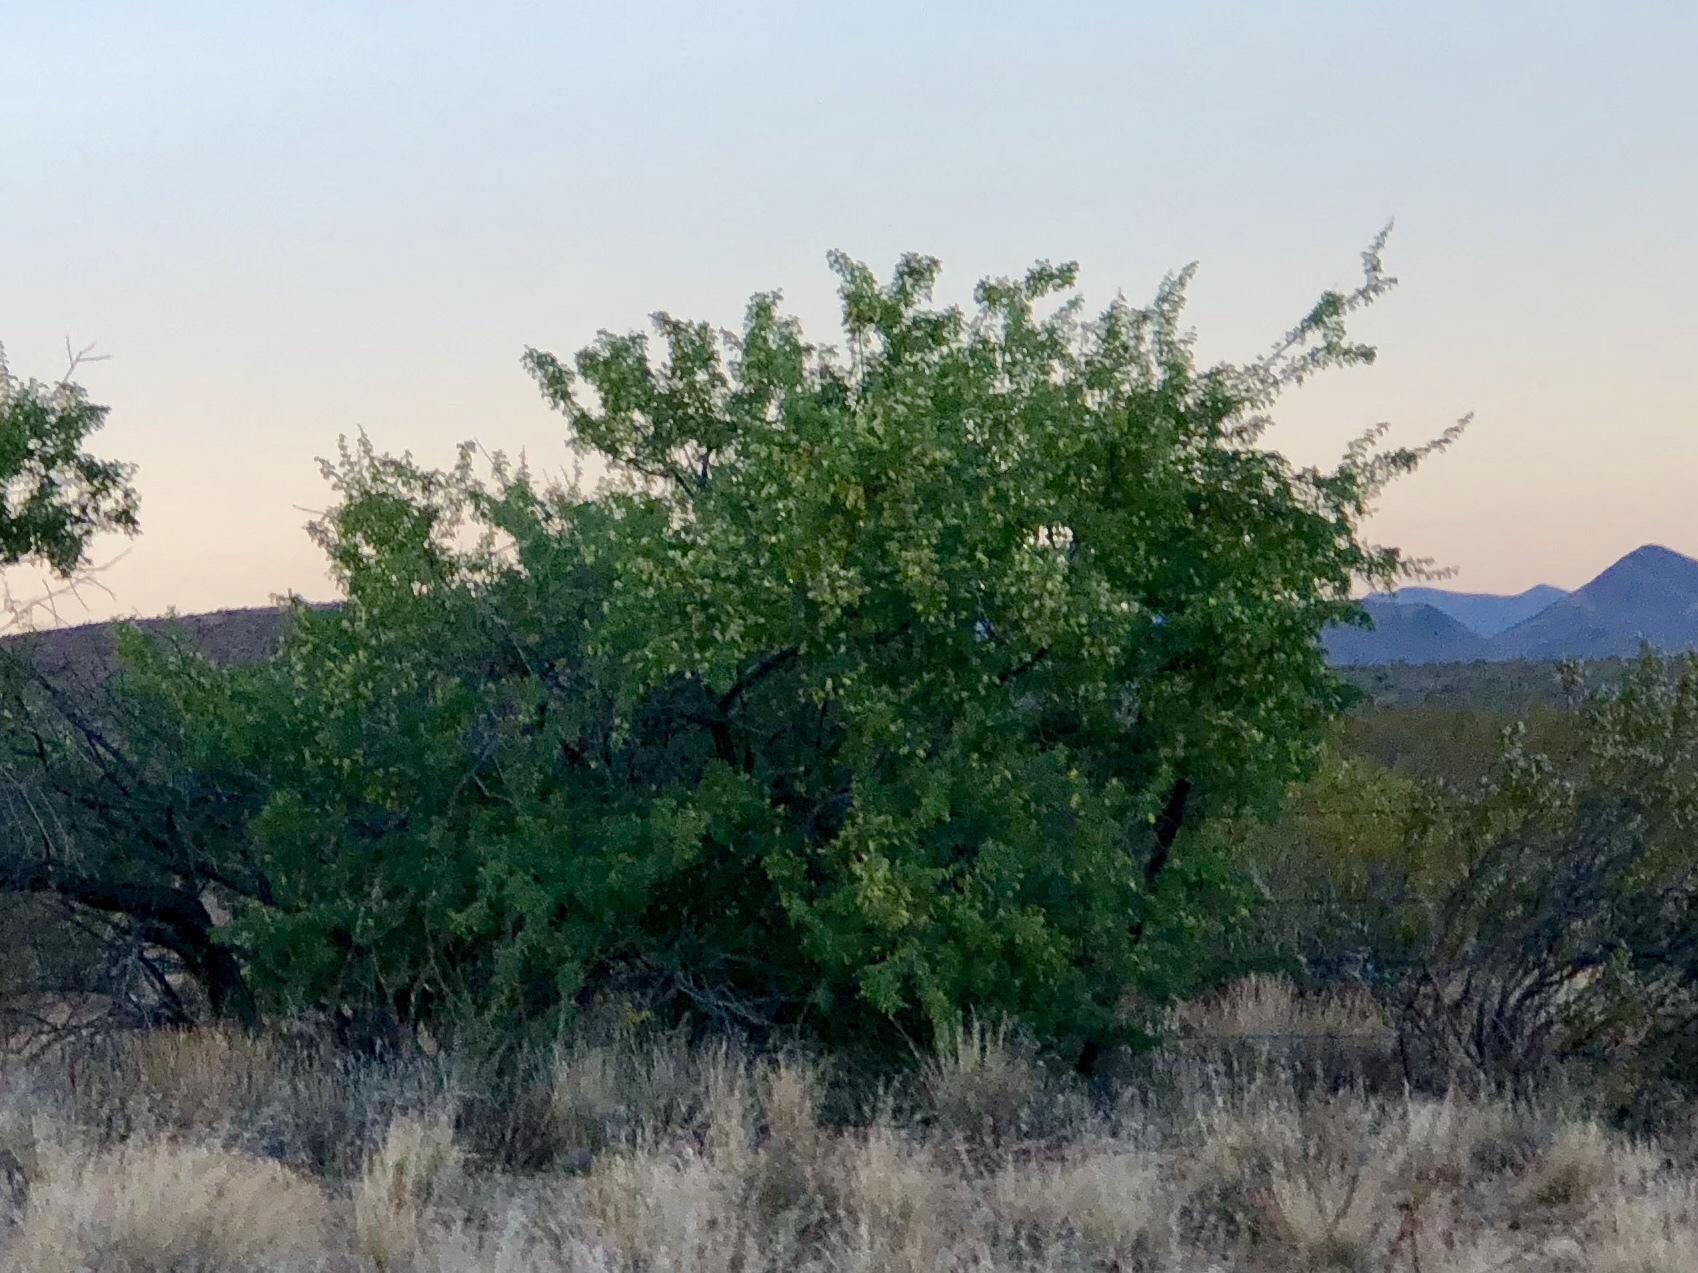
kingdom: Plantae
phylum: Tracheophyta
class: Magnoliopsida
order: Fabales
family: Fabaceae
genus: Senegalia
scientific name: Senegalia greggii
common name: Texas-mimosa
